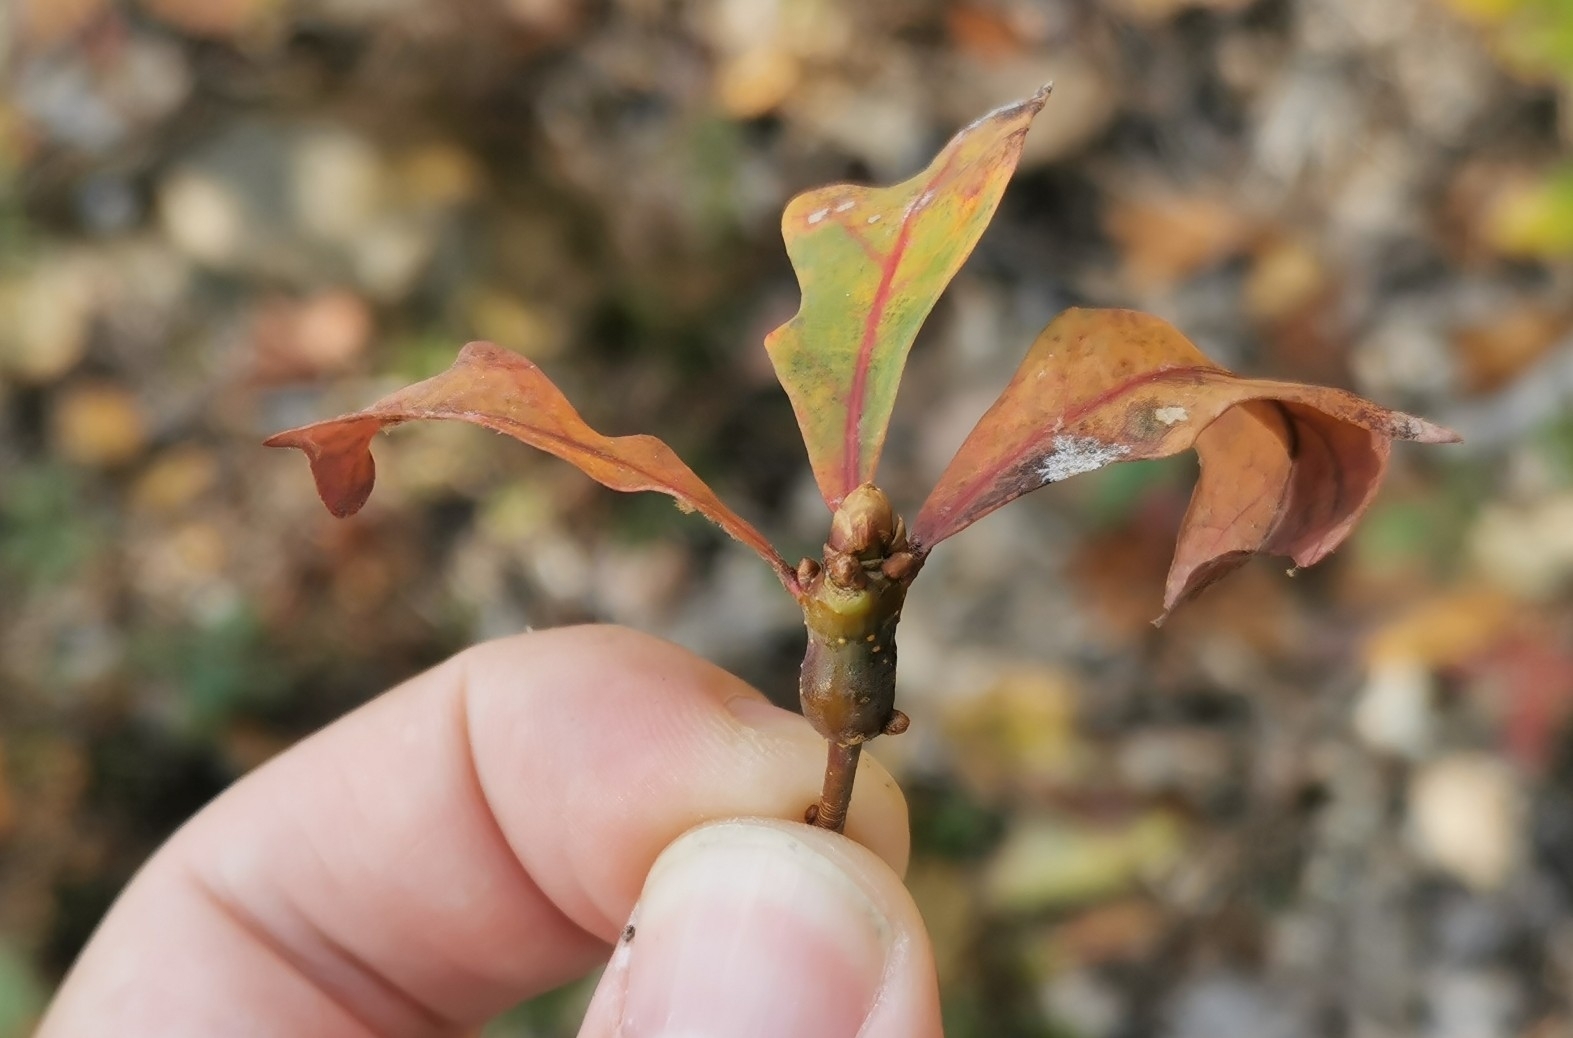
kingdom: Animalia
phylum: Arthropoda
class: Insecta
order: Hymenoptera
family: Cynipidae
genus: Neuroterus
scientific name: Neuroterus quercusbaccarum
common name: Common spangle gall
